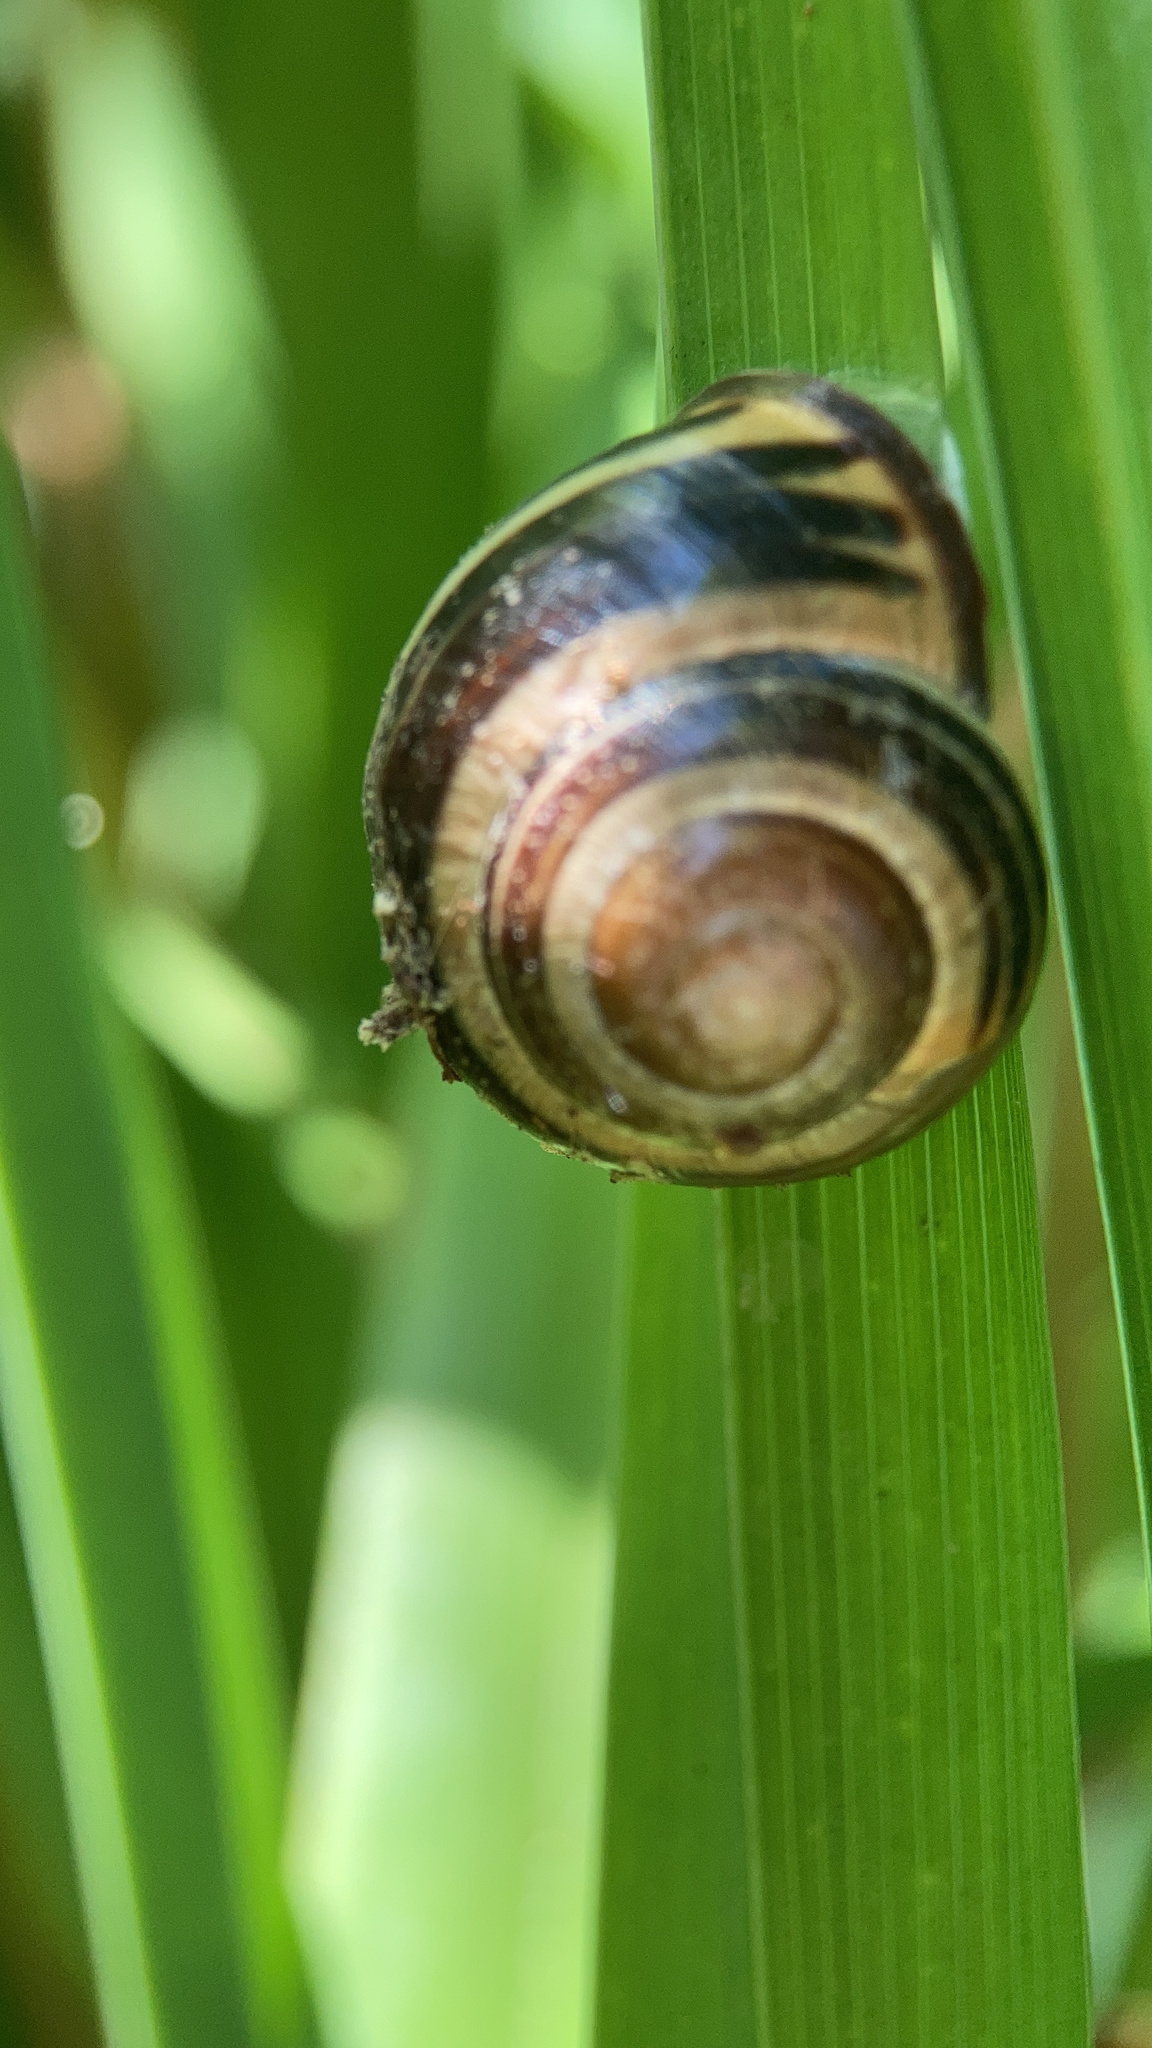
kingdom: Animalia
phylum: Mollusca
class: Gastropoda
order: Stylommatophora
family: Helicidae
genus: Cepaea
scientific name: Cepaea nemoralis
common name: Grovesnail
